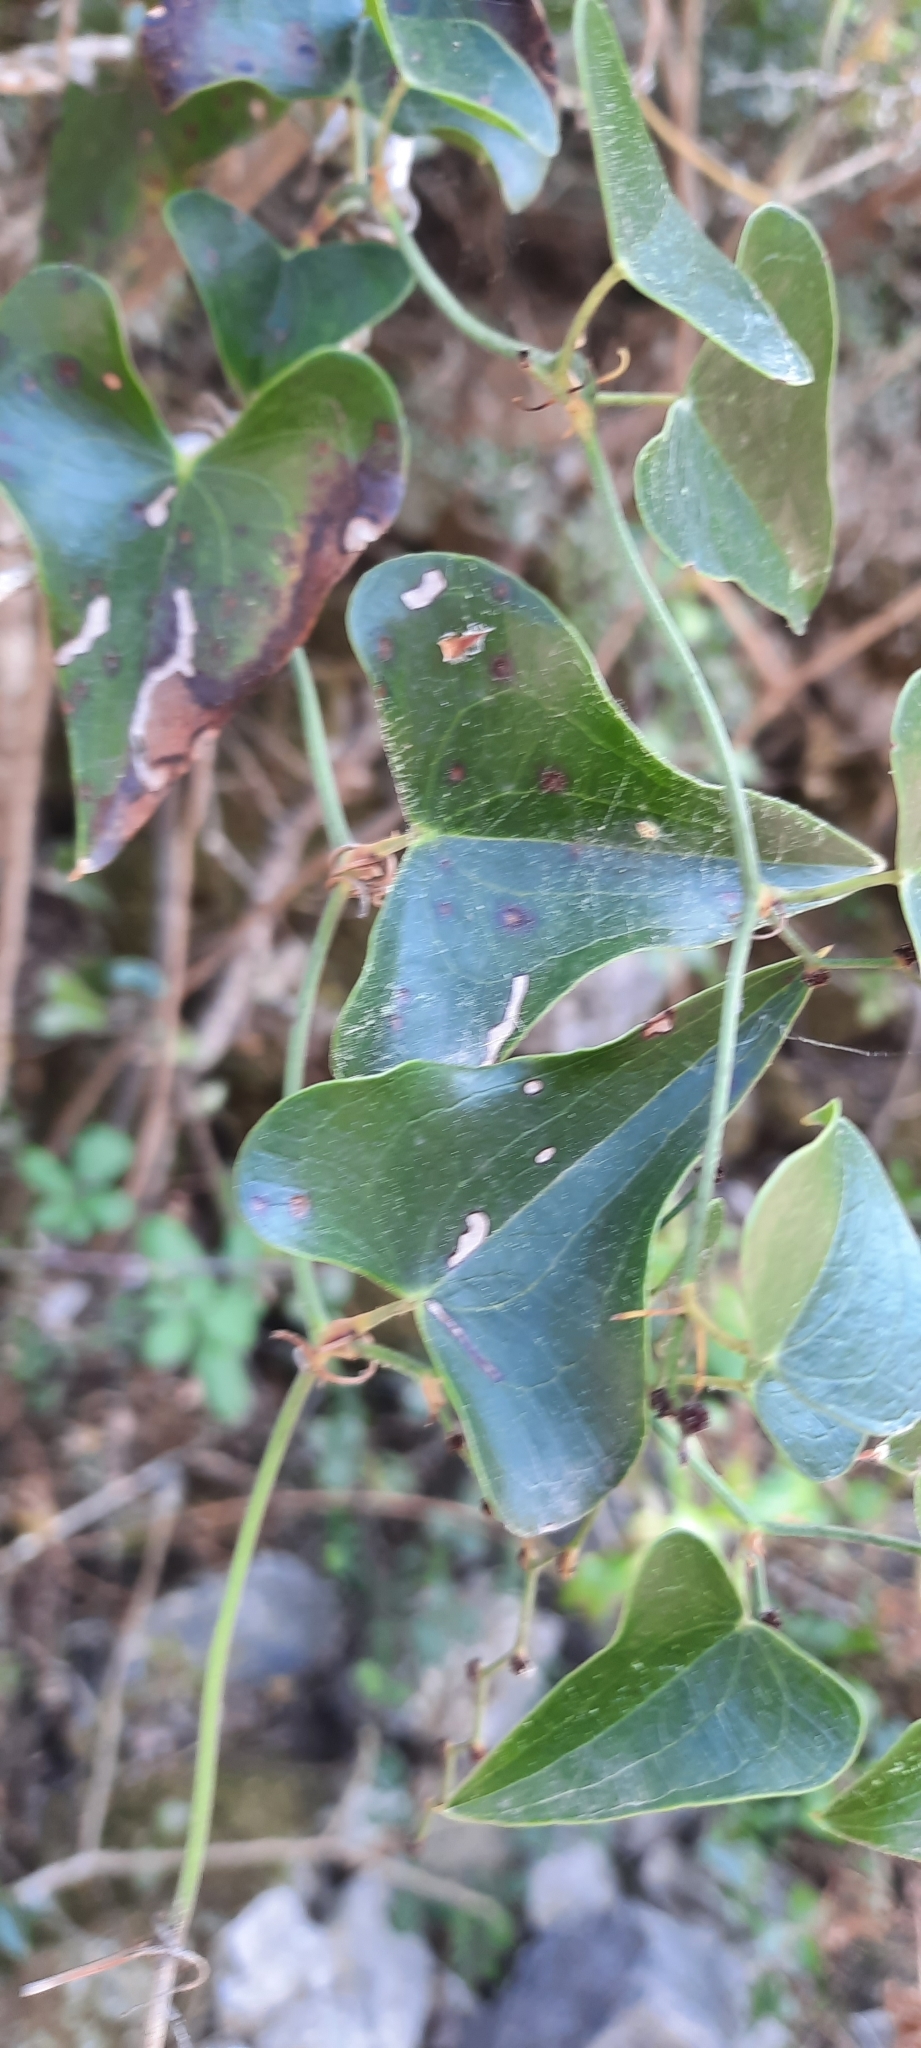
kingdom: Plantae
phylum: Tracheophyta
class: Liliopsida
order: Liliales
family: Smilacaceae
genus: Smilax
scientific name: Smilax aspera
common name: Common smilax
